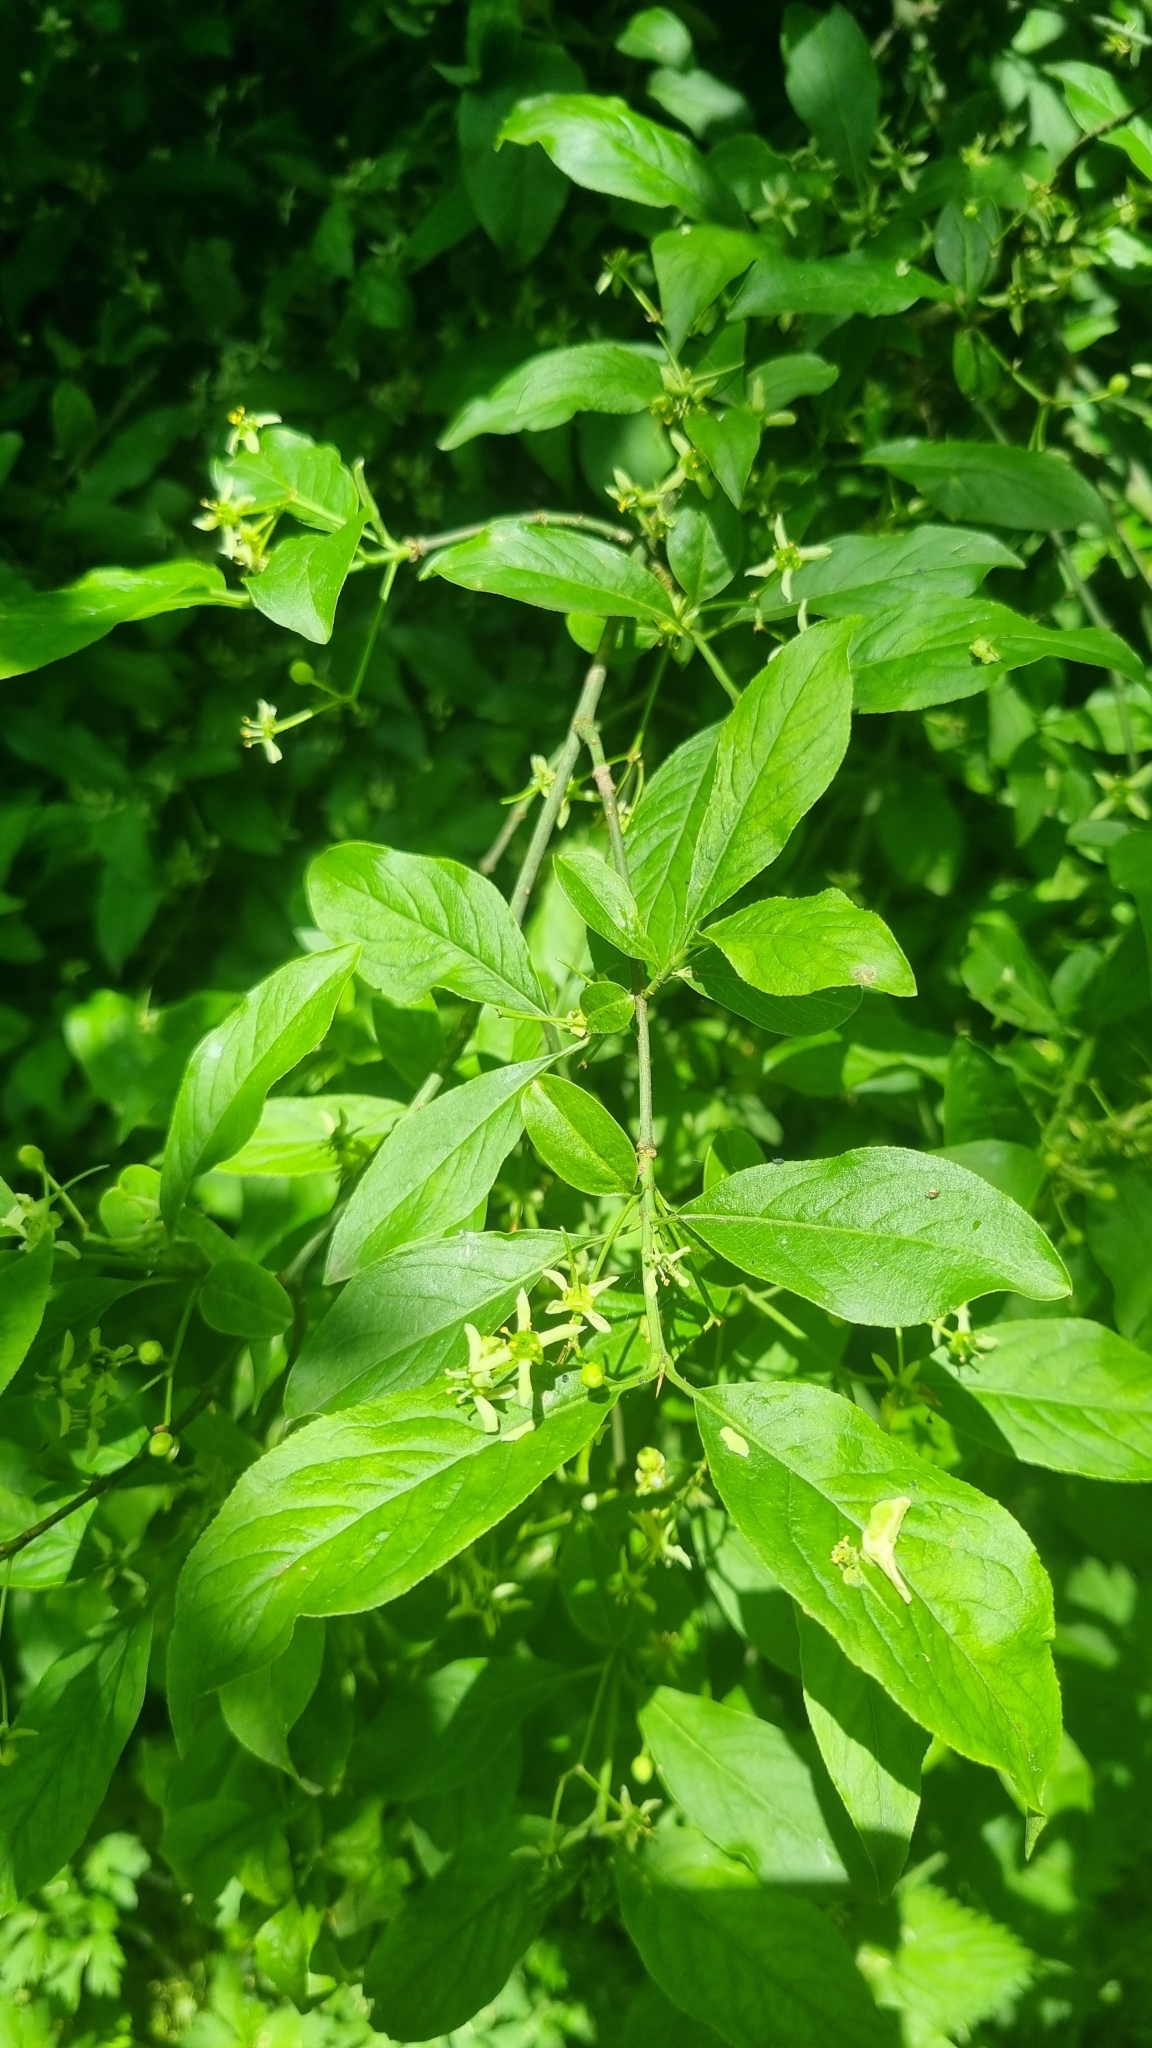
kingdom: Plantae
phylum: Tracheophyta
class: Magnoliopsida
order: Celastrales
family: Celastraceae
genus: Euonymus
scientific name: Euonymus europaeus
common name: Spindle
